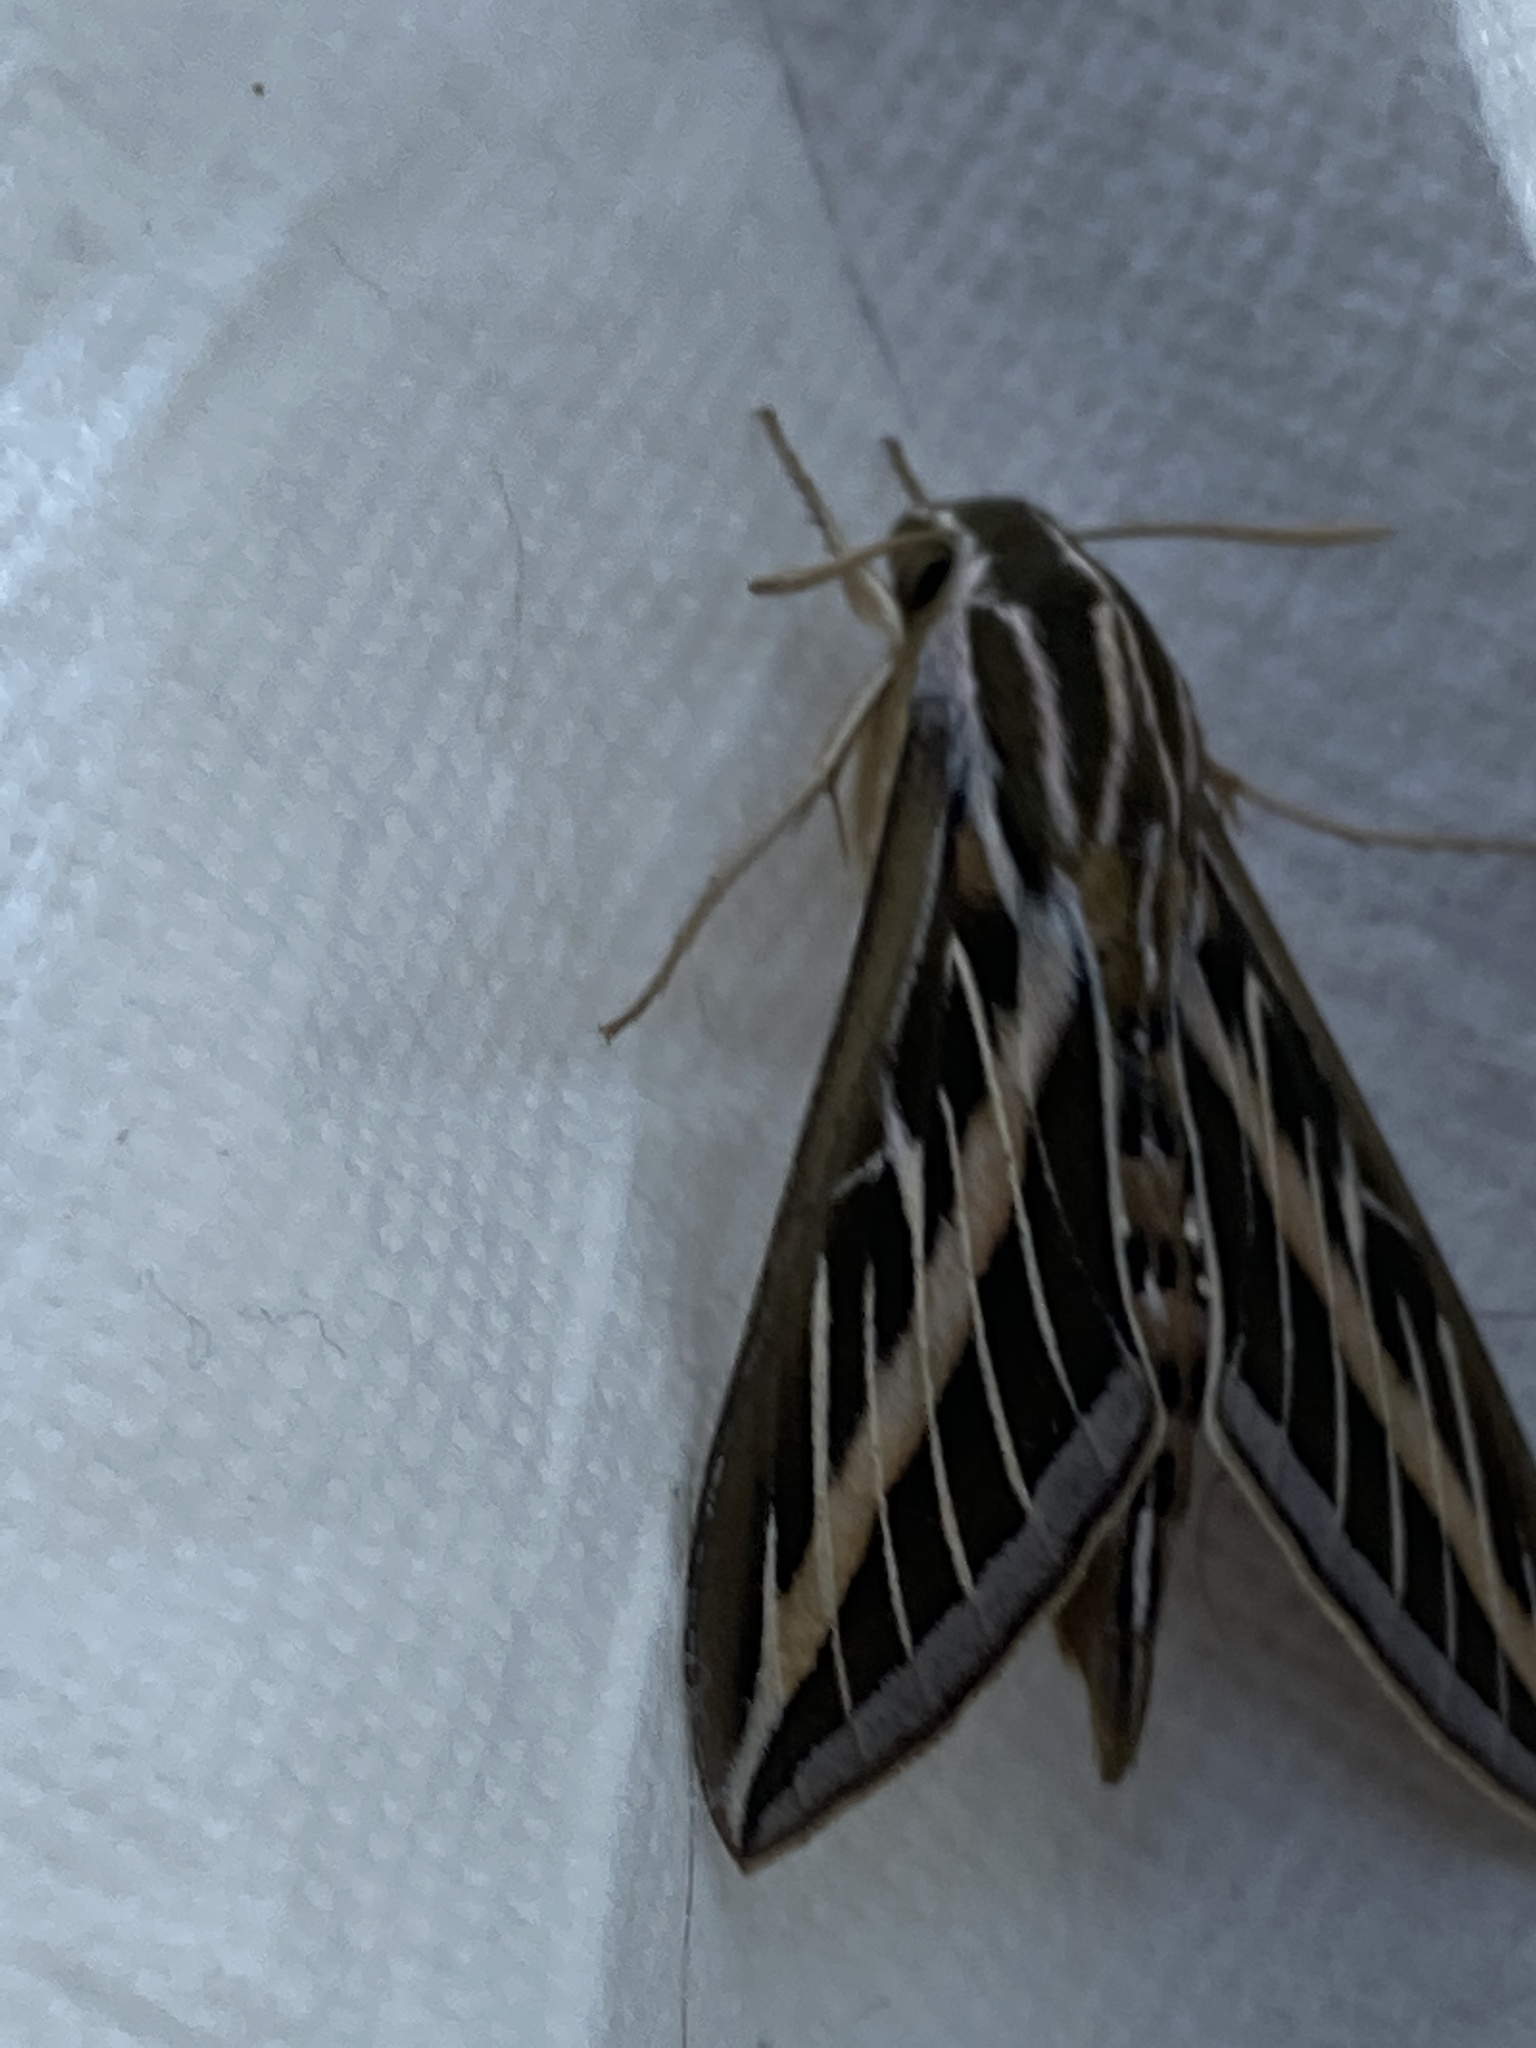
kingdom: Animalia
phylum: Arthropoda
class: Insecta
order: Lepidoptera
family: Sphingidae
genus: Hyles
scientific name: Hyles lineata
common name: White-lined sphinx
